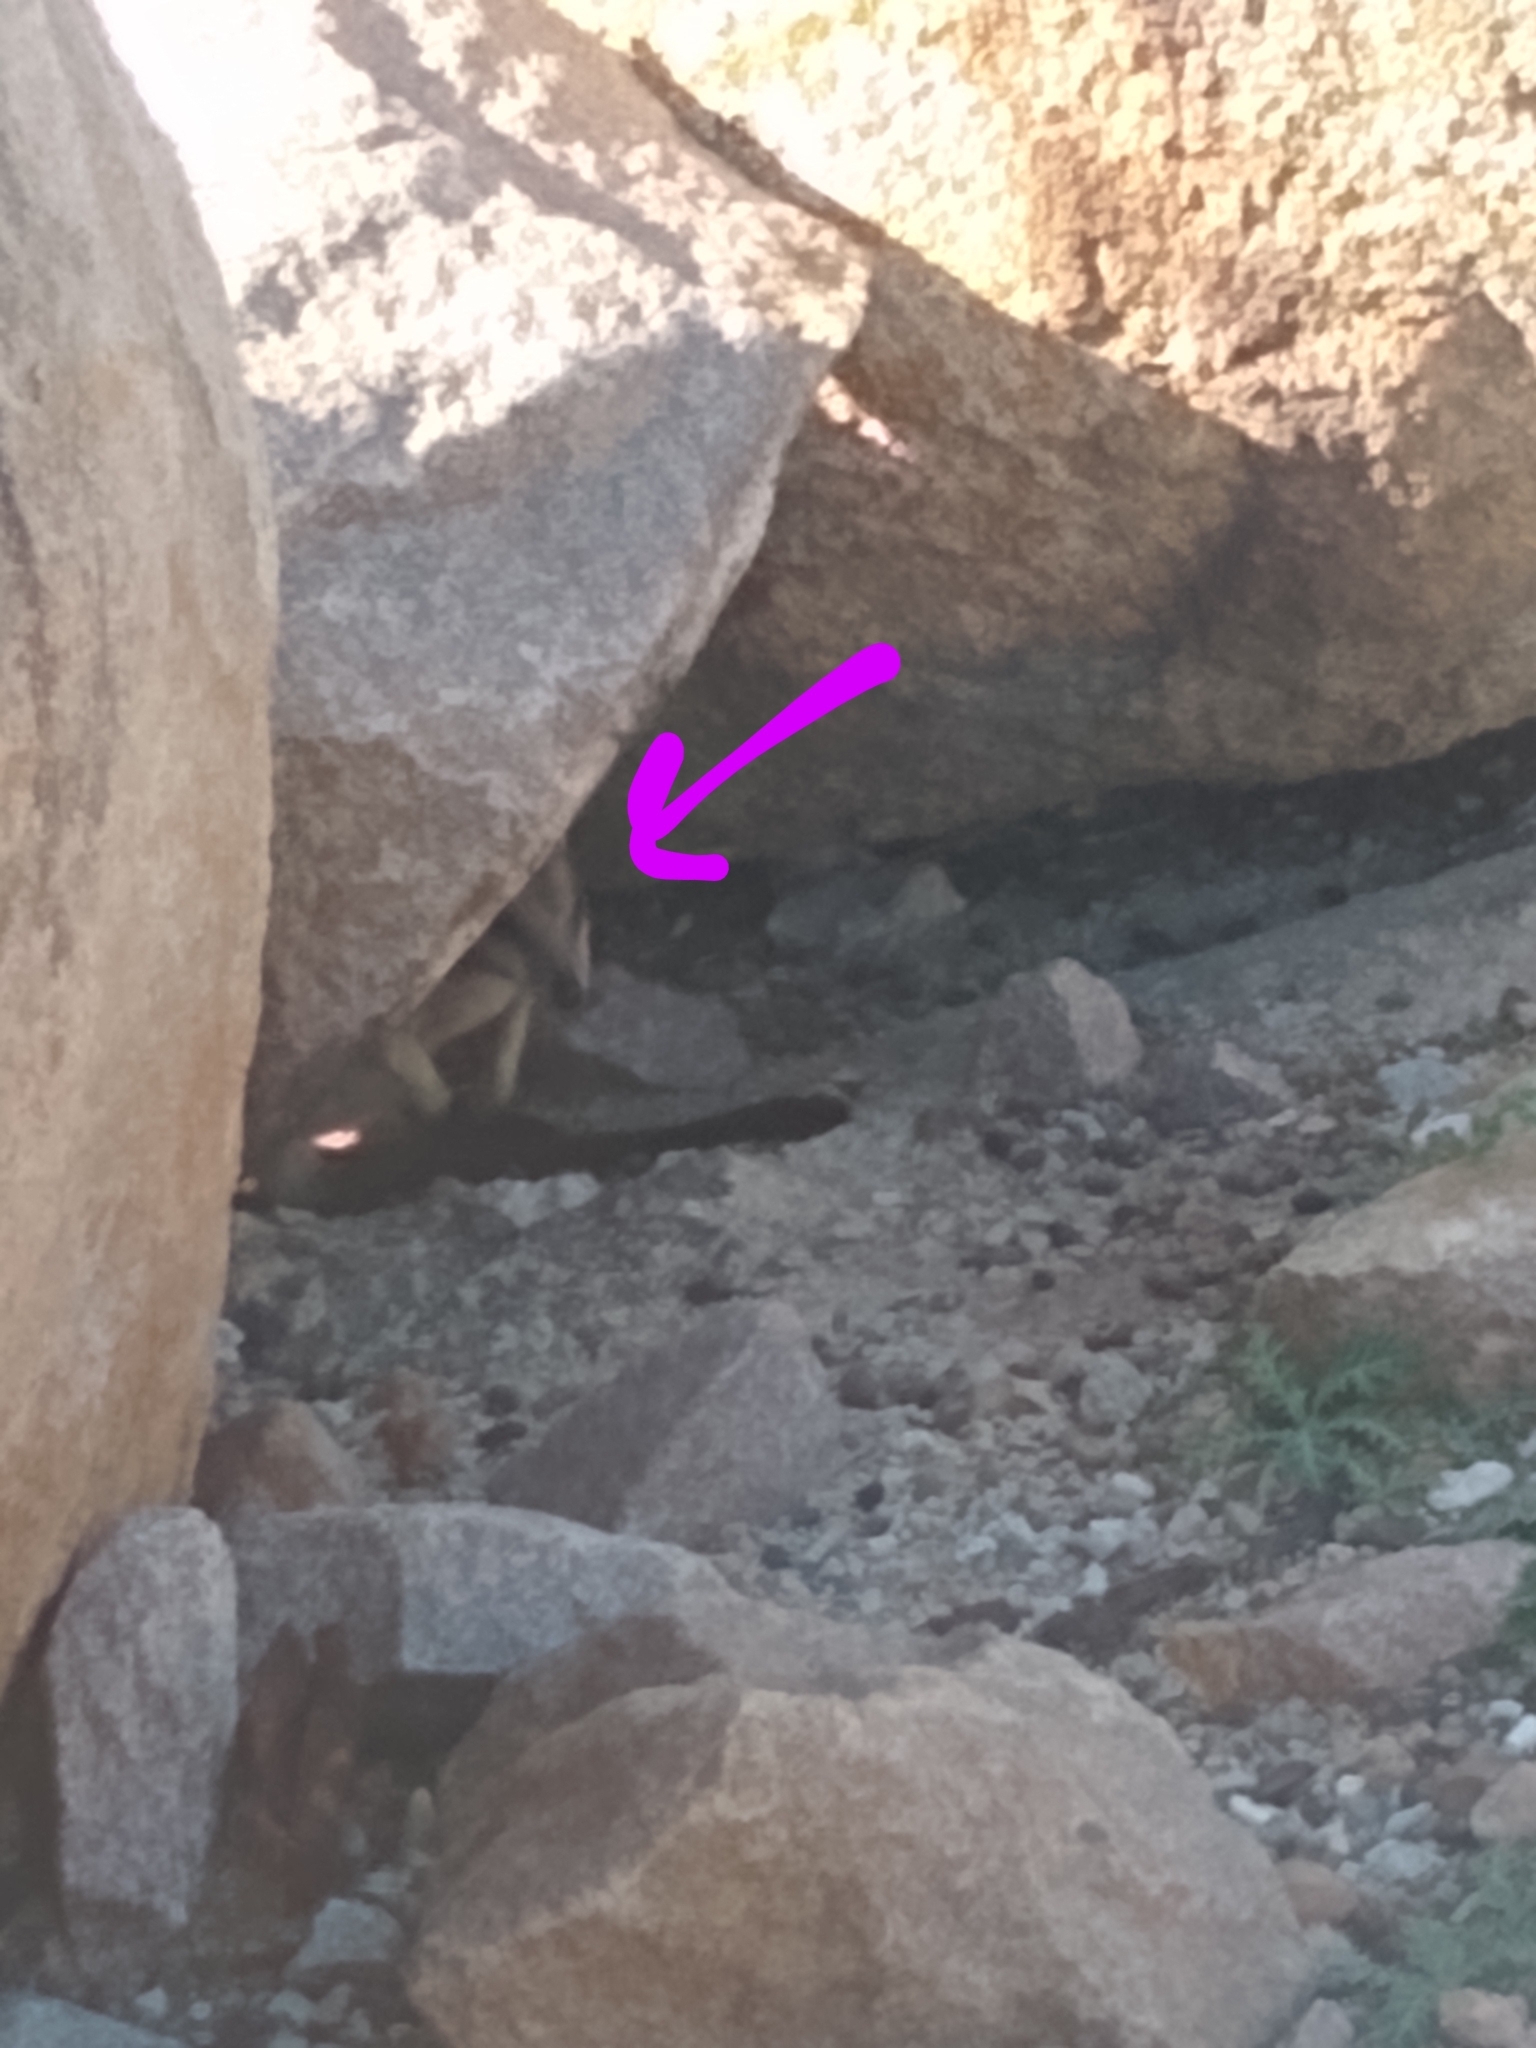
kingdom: Animalia
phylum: Chordata
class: Mammalia
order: Diprotodontia
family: Macropodidae
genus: Petrogale
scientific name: Petrogale assimilis
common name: Allied rock wallaby
